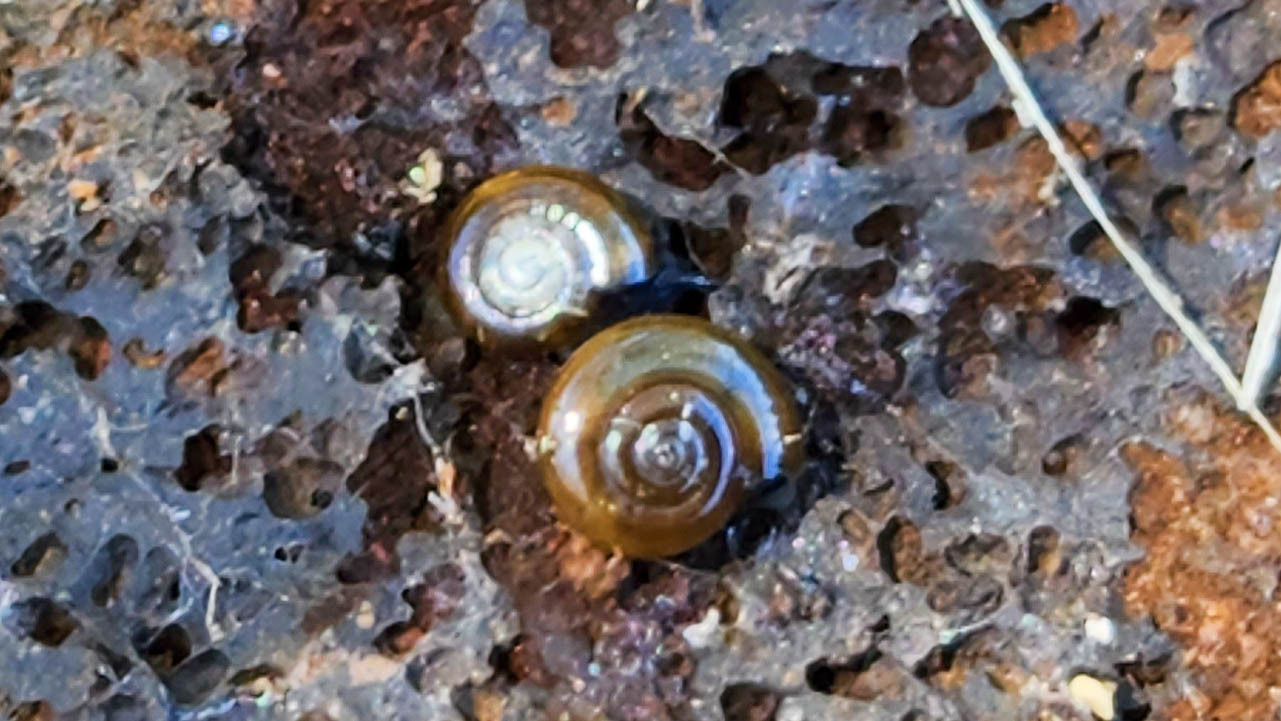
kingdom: Animalia
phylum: Mollusca
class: Gastropoda
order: Stylommatophora
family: Oxychilidae
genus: Oxychilus
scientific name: Oxychilus alliarius
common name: Garlic glass-snail
